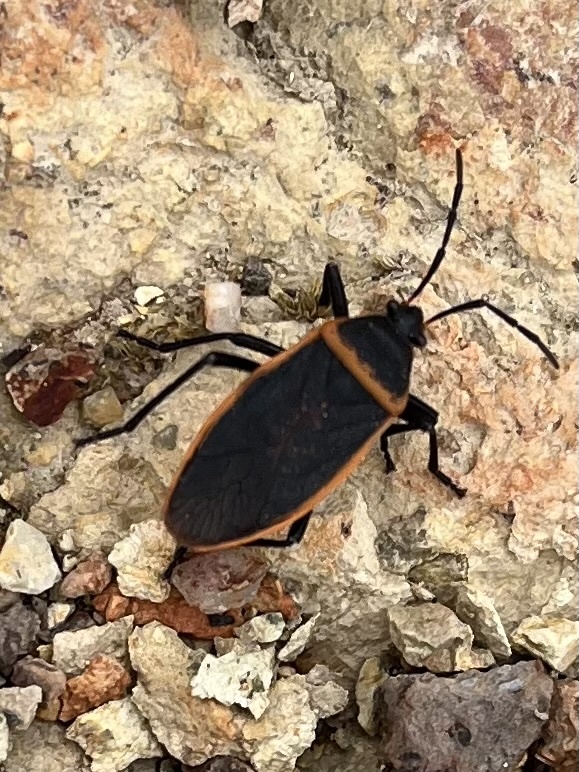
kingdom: Animalia
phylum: Arthropoda
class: Insecta
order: Hemiptera
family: Largidae
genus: Largus
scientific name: Largus californicus
